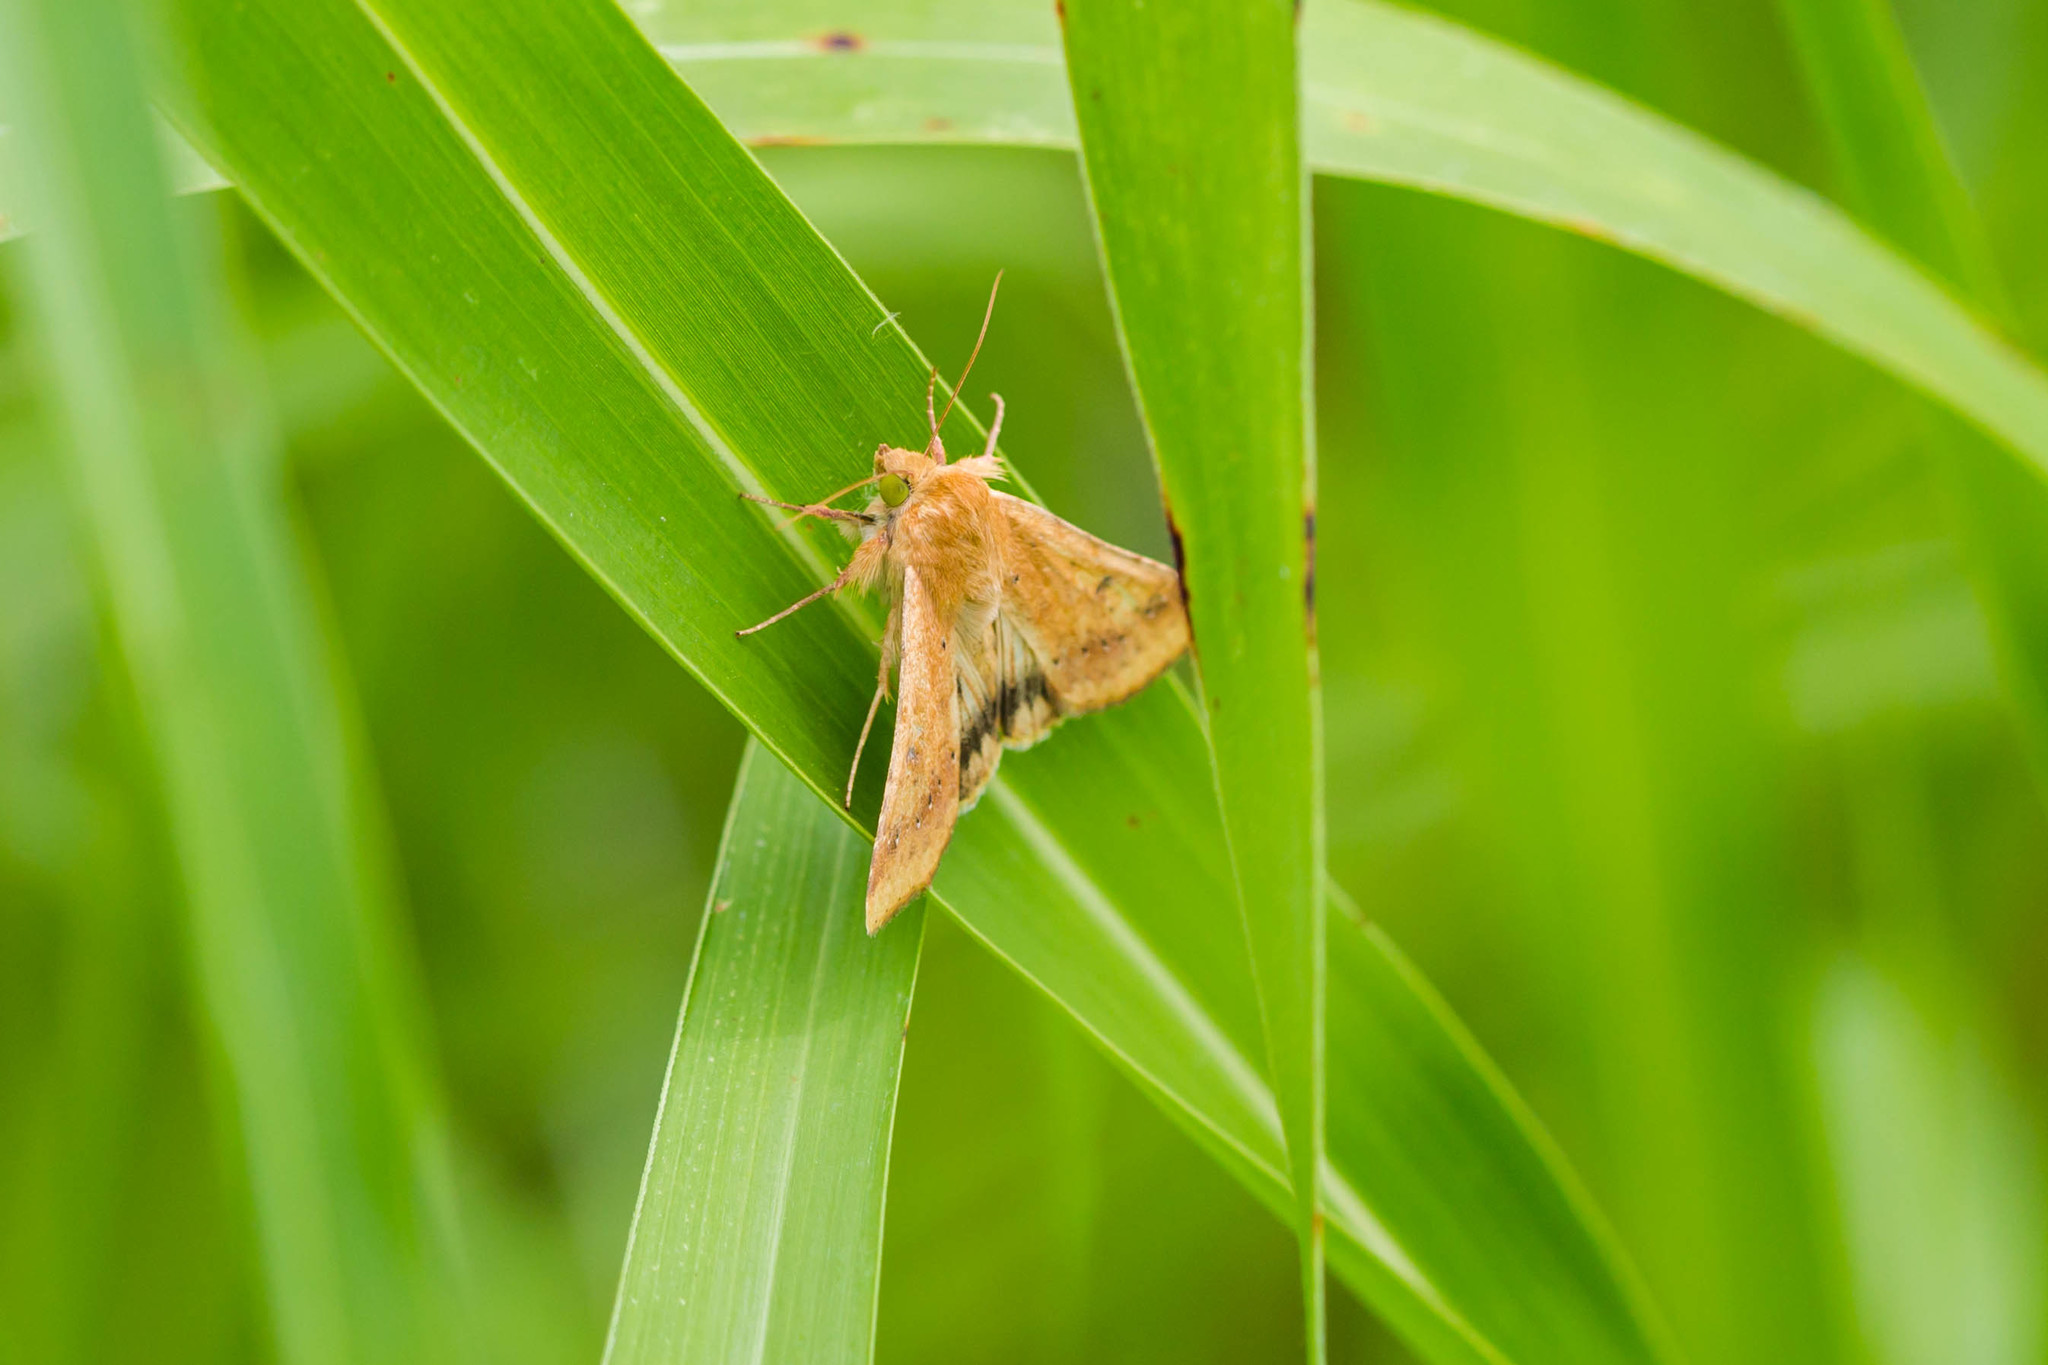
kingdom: Animalia
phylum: Arthropoda
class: Insecta
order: Lepidoptera
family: Noctuidae
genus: Helicoverpa
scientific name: Helicoverpa zea
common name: Bollworm
